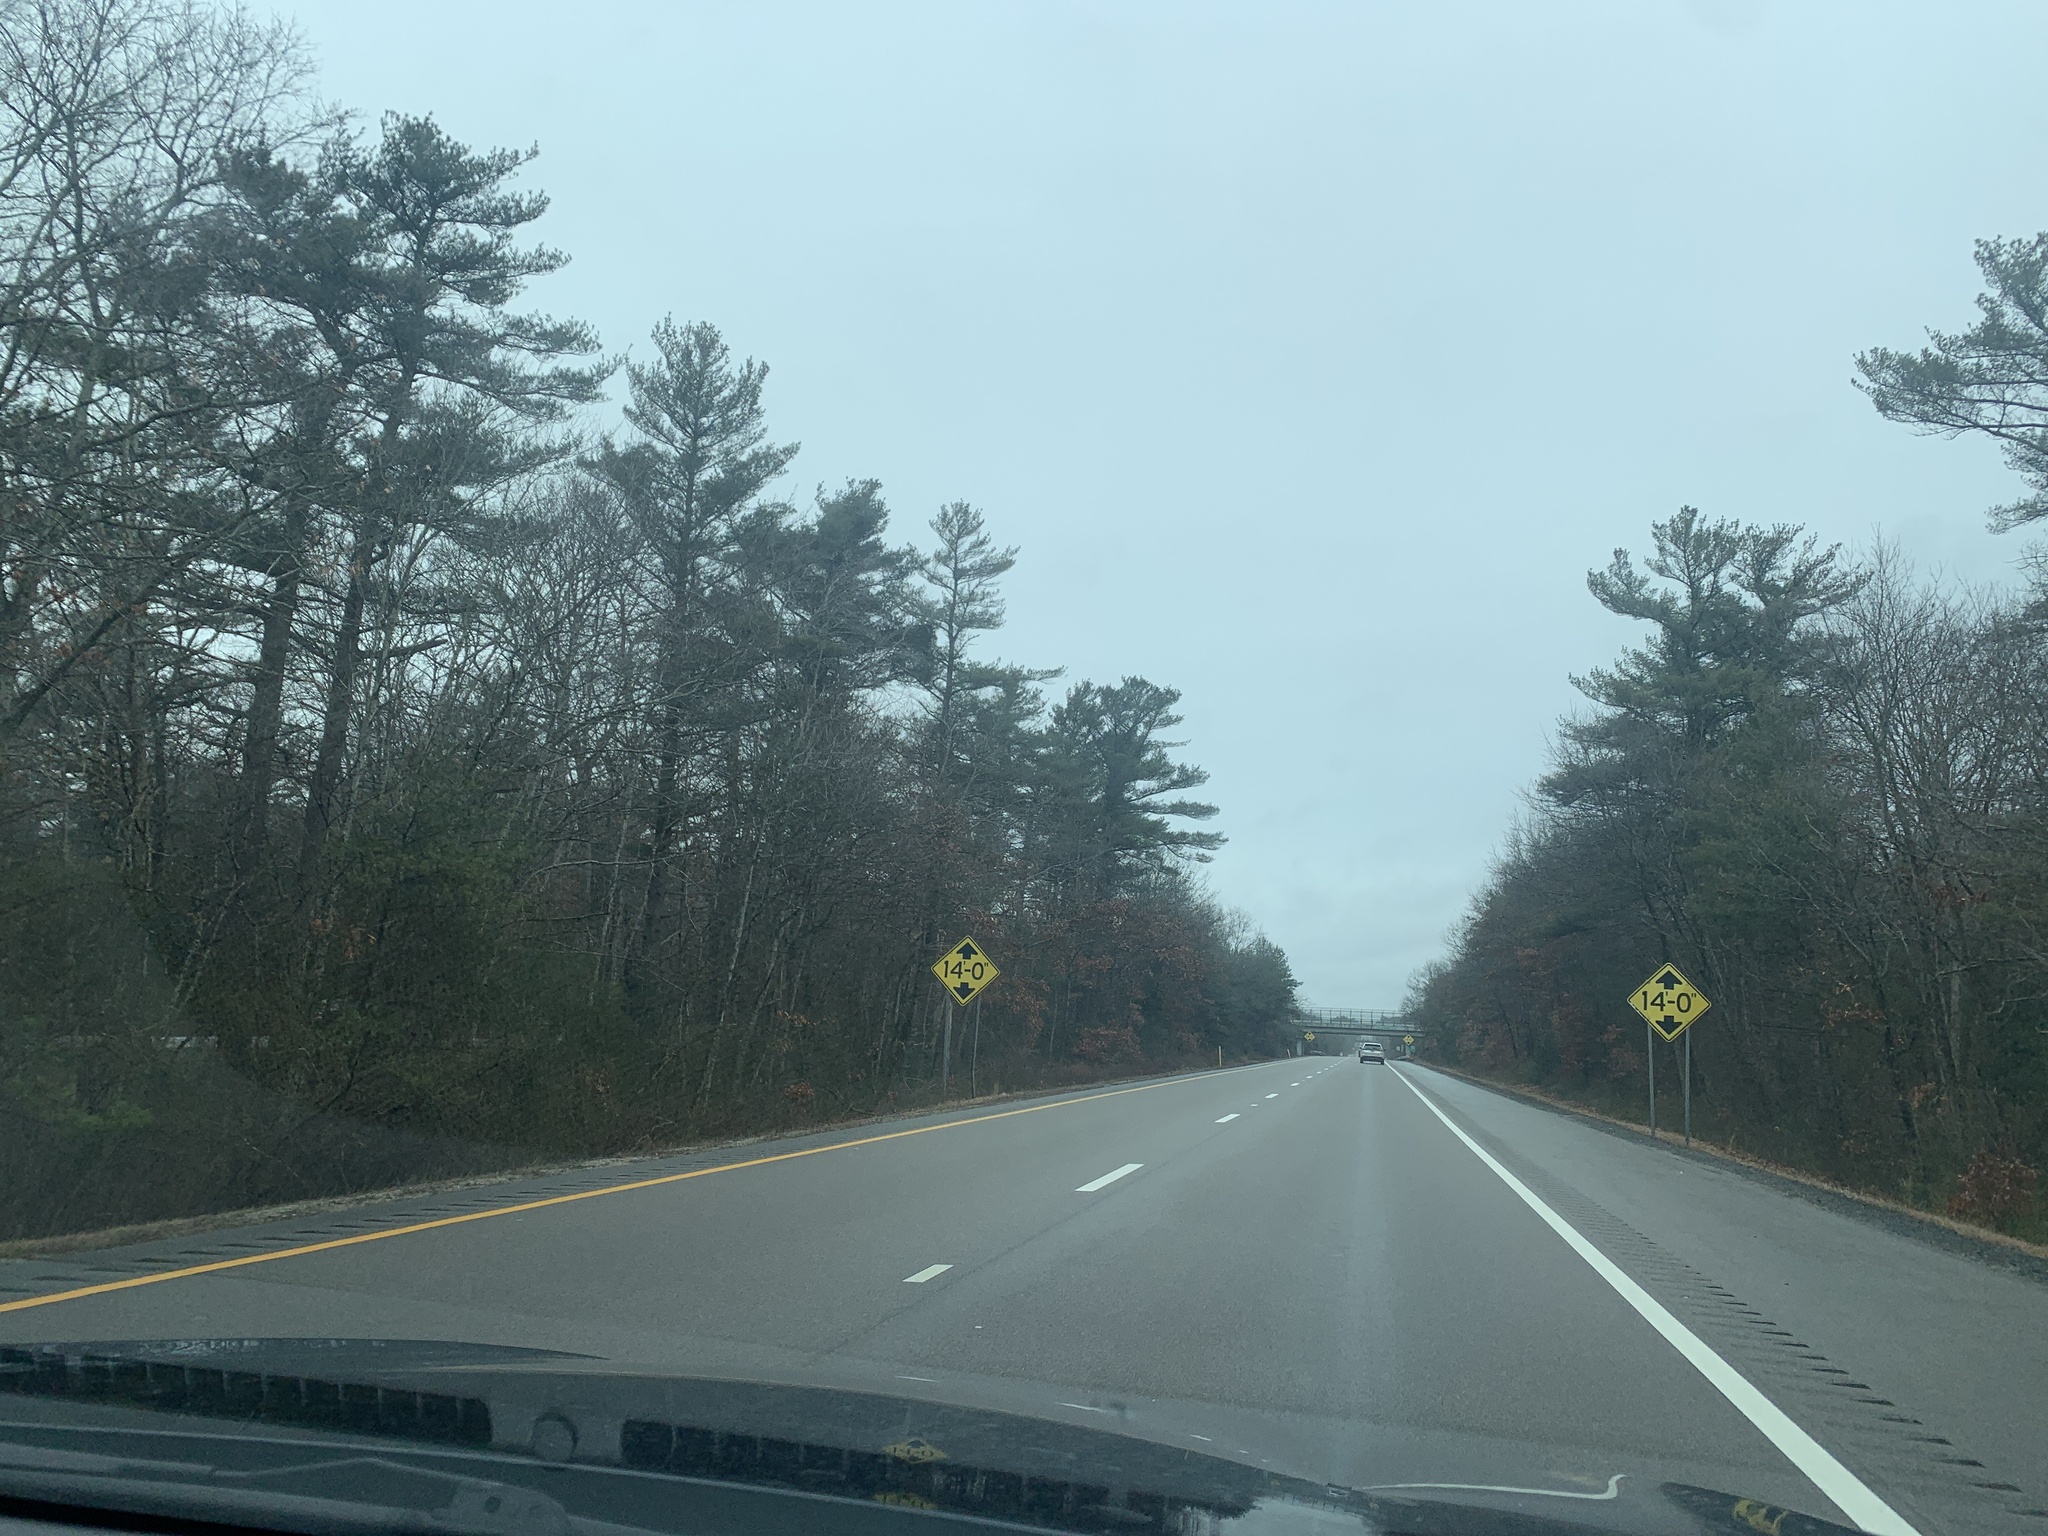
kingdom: Plantae
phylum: Tracheophyta
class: Pinopsida
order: Pinales
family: Pinaceae
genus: Pinus
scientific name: Pinus strobus
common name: Weymouth pine
